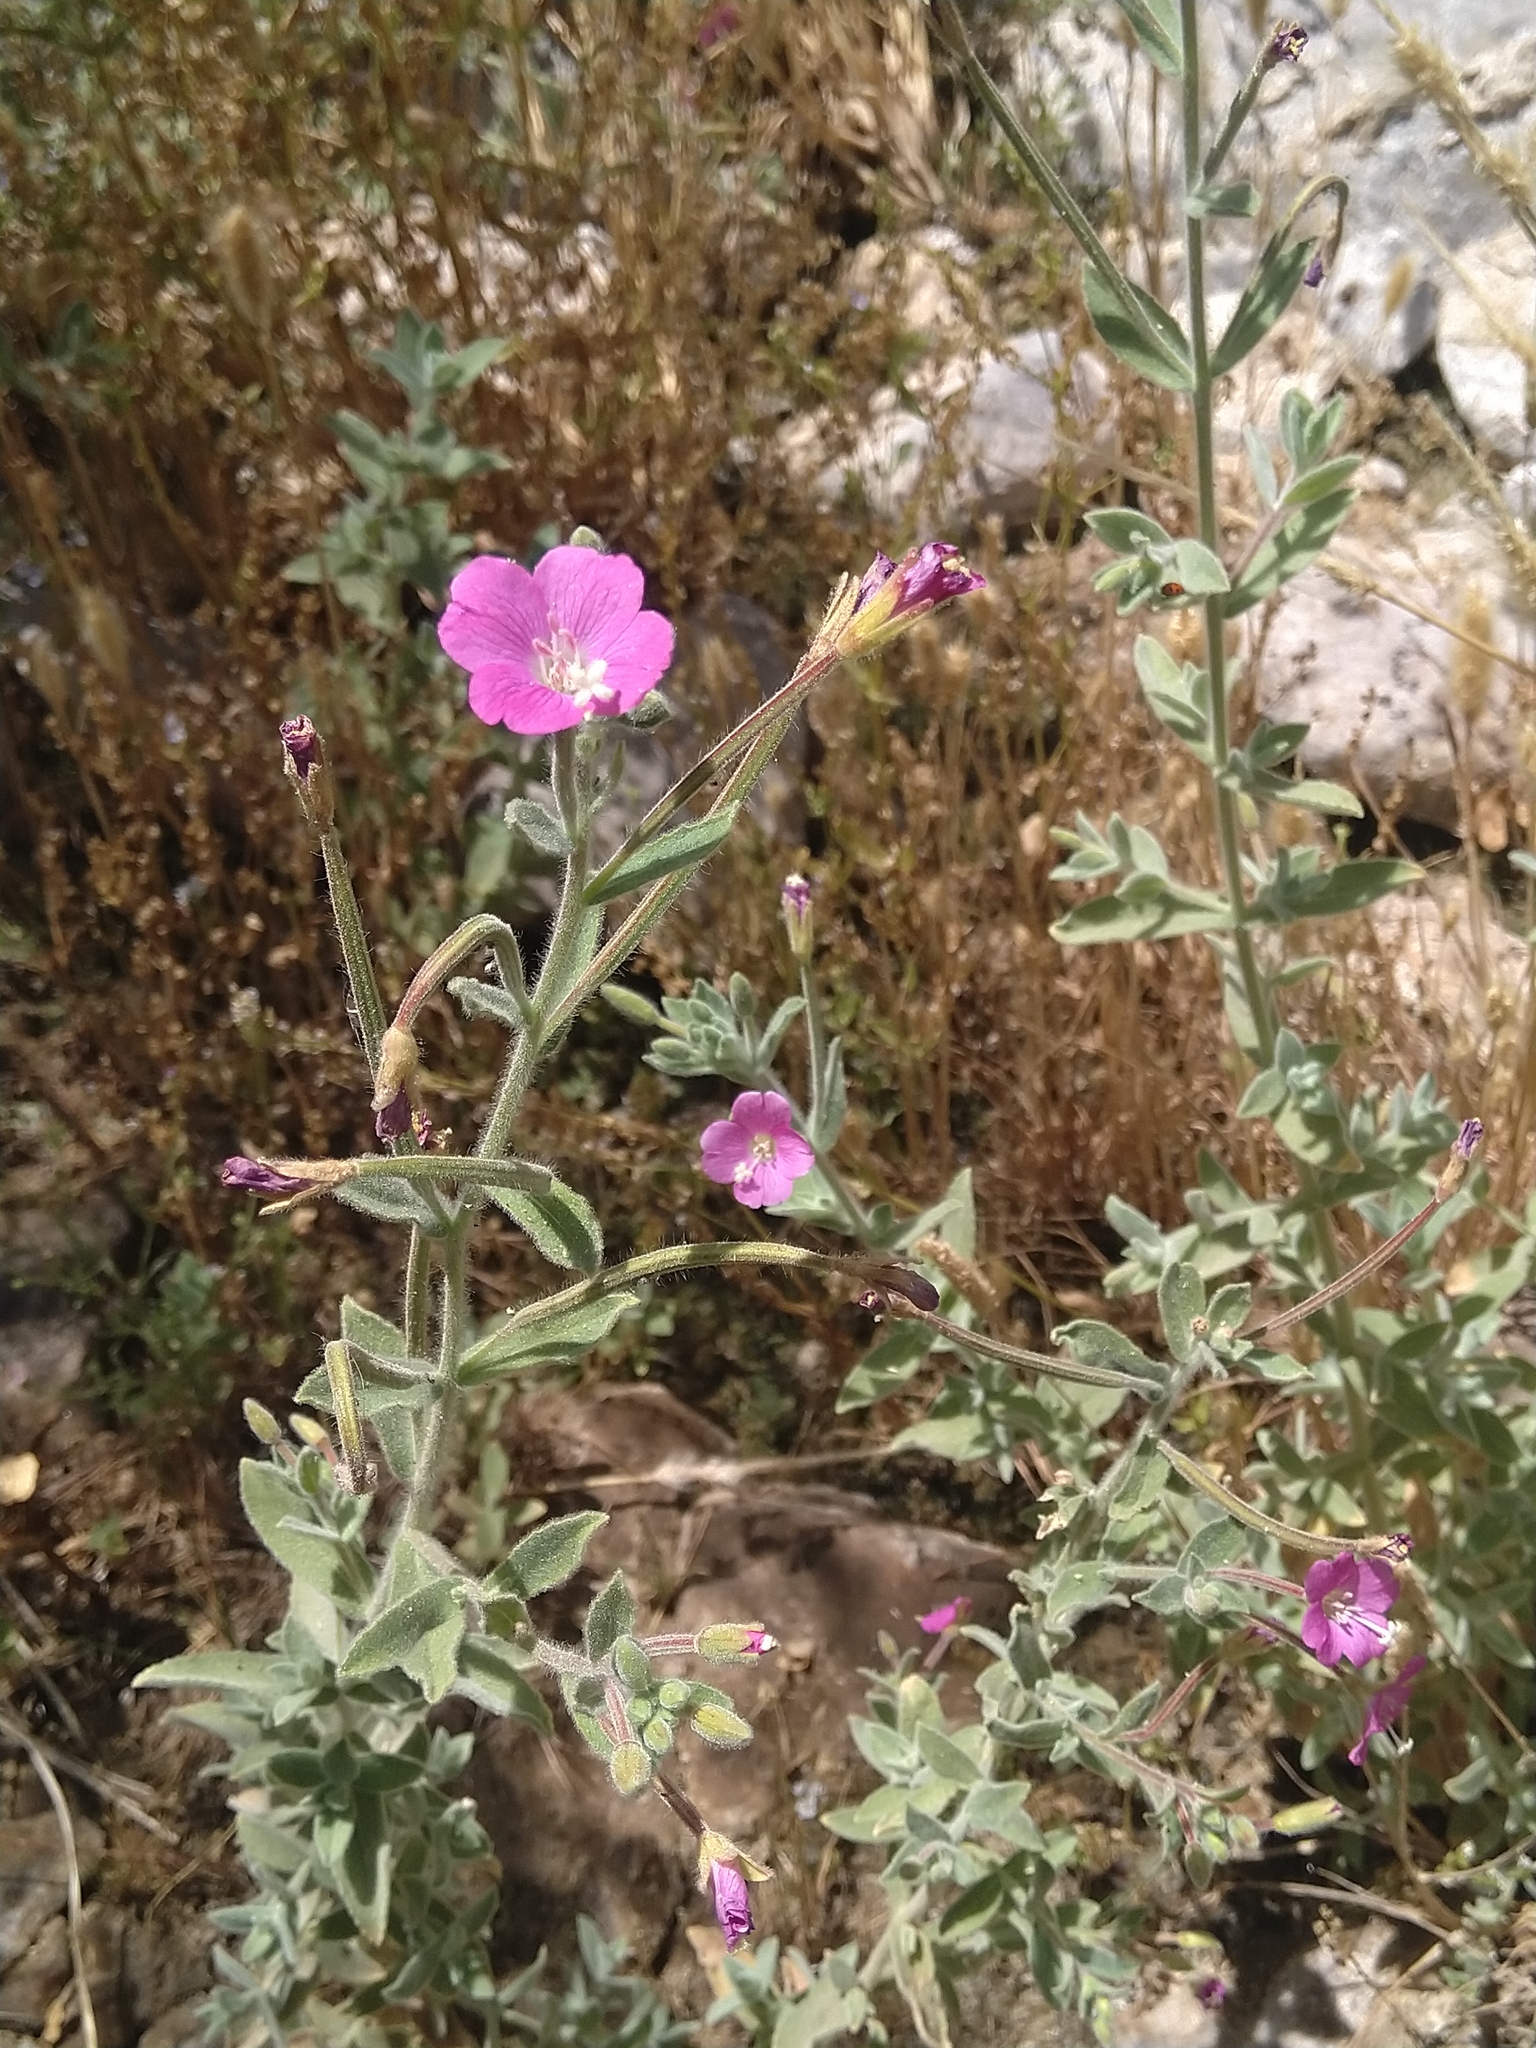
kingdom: Plantae
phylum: Tracheophyta
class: Magnoliopsida
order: Myrtales
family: Onagraceae
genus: Epilobium
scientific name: Epilobium hirsutum
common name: Great willowherb
